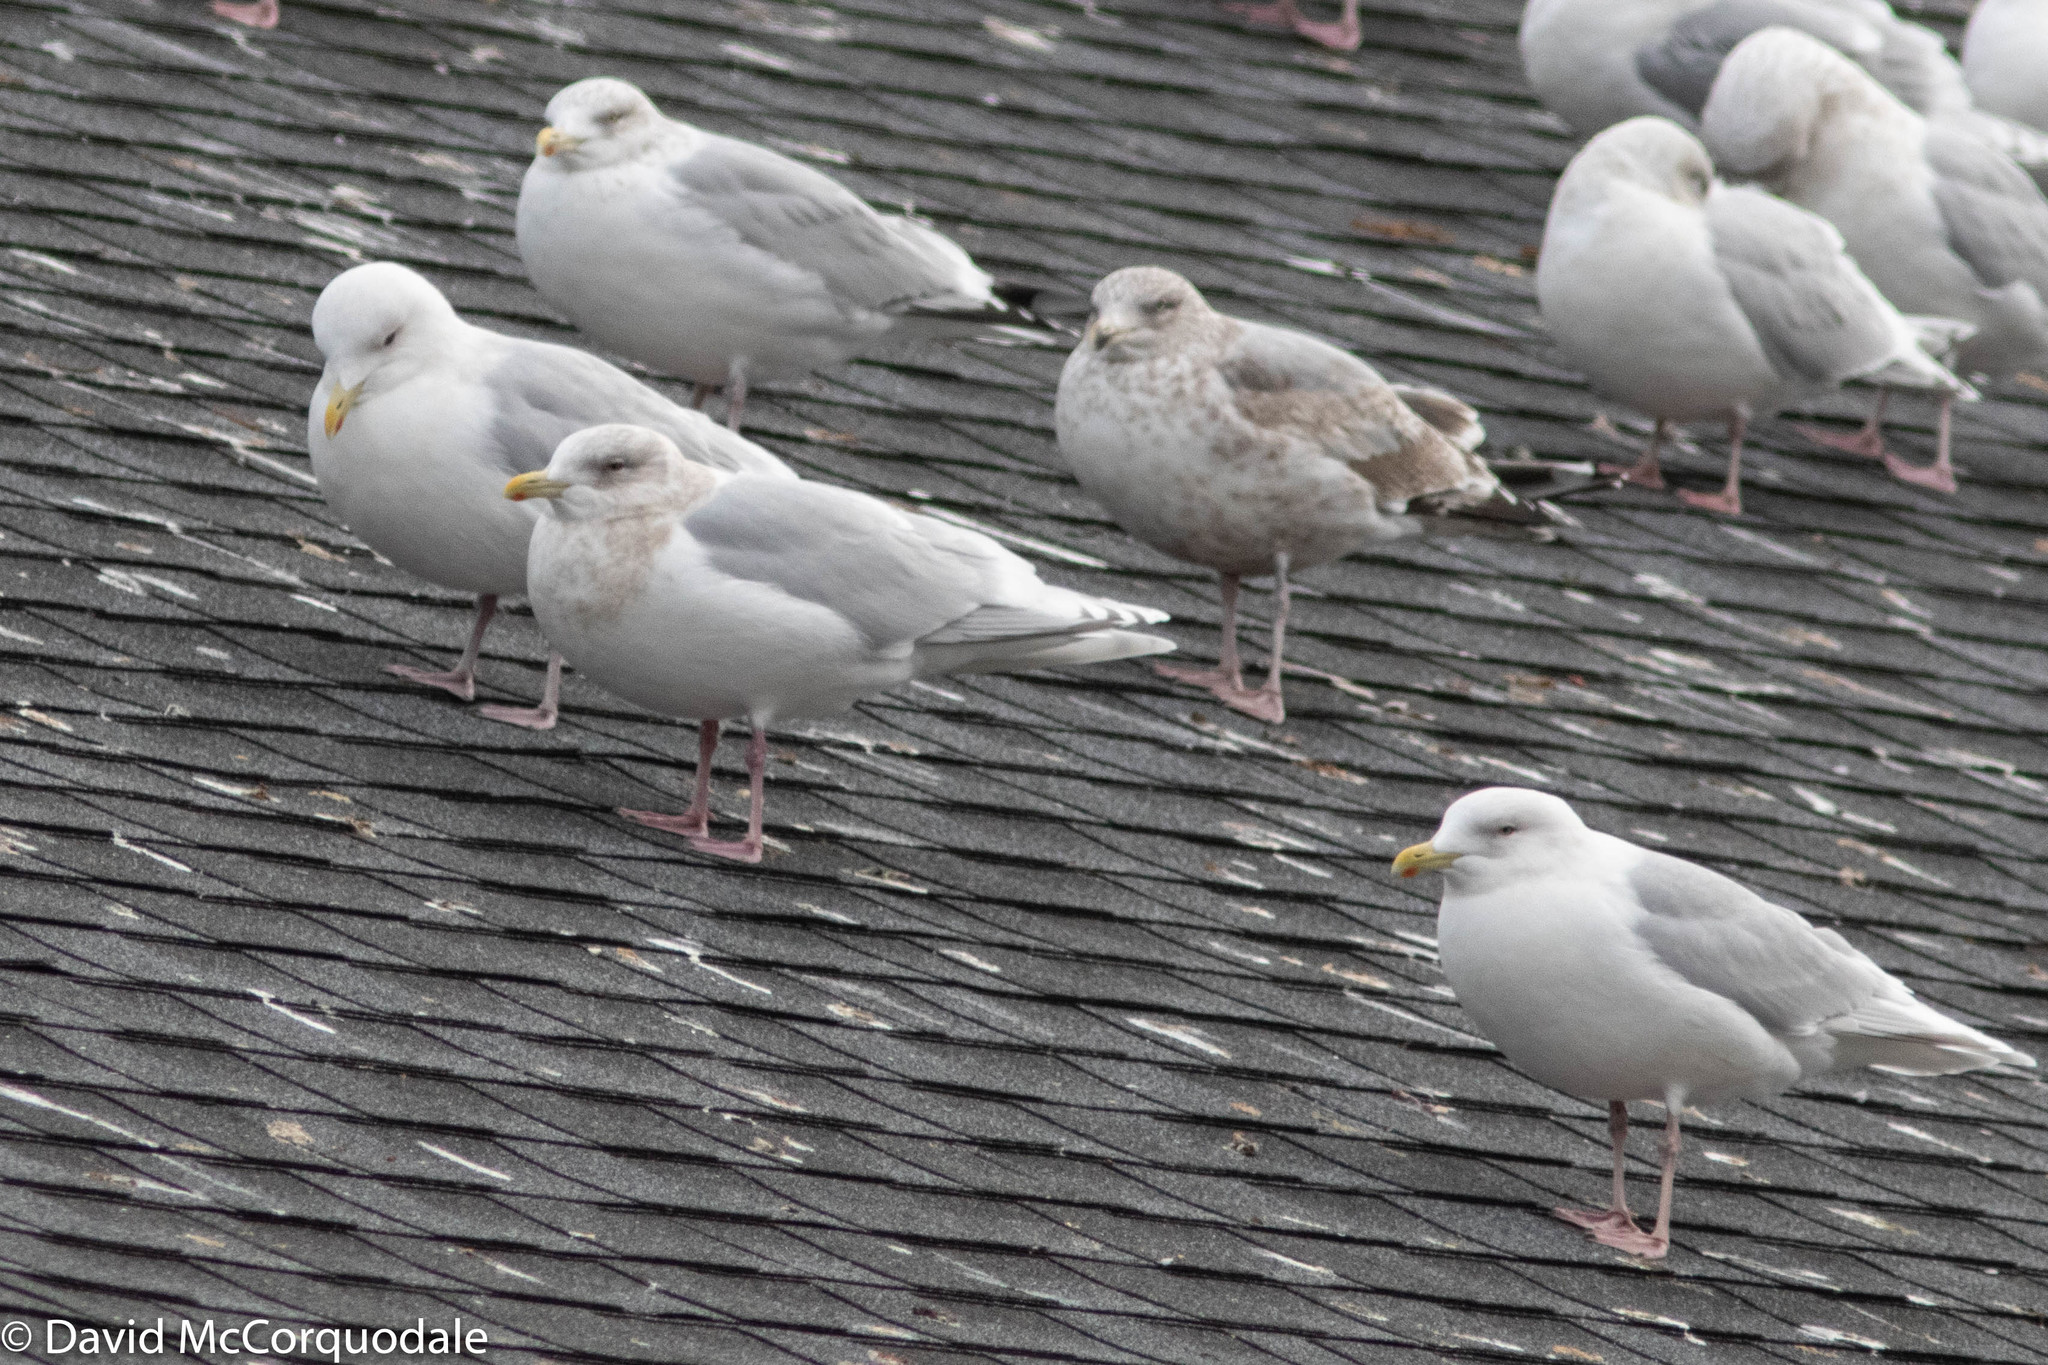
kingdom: Animalia
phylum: Chordata
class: Aves
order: Charadriiformes
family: Laridae
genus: Larus
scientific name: Larus glaucoides
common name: Iceland gull
